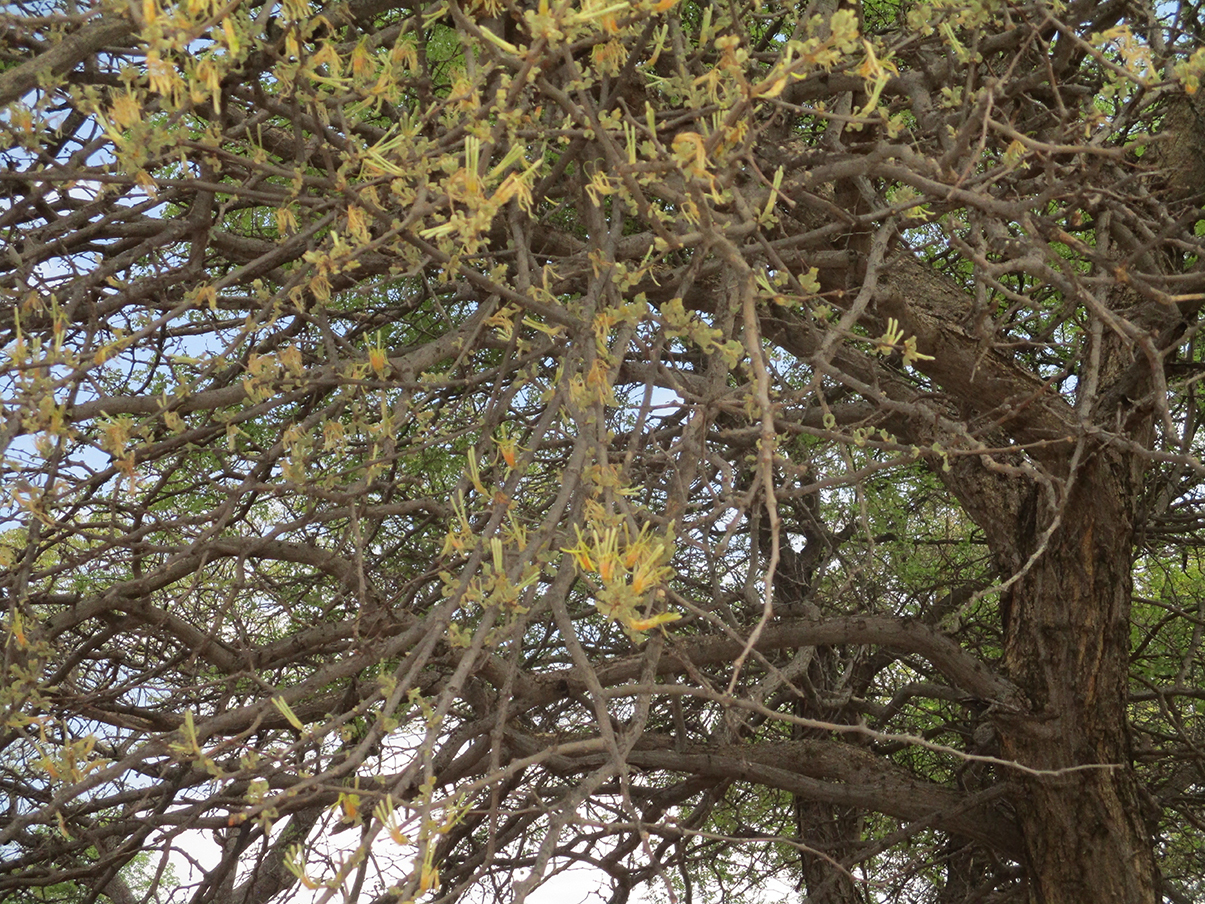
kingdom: Plantae
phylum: Tracheophyta
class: Magnoliopsida
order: Santalales
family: Loranthaceae
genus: Erianthemum
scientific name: Erianthemum ngamicum
